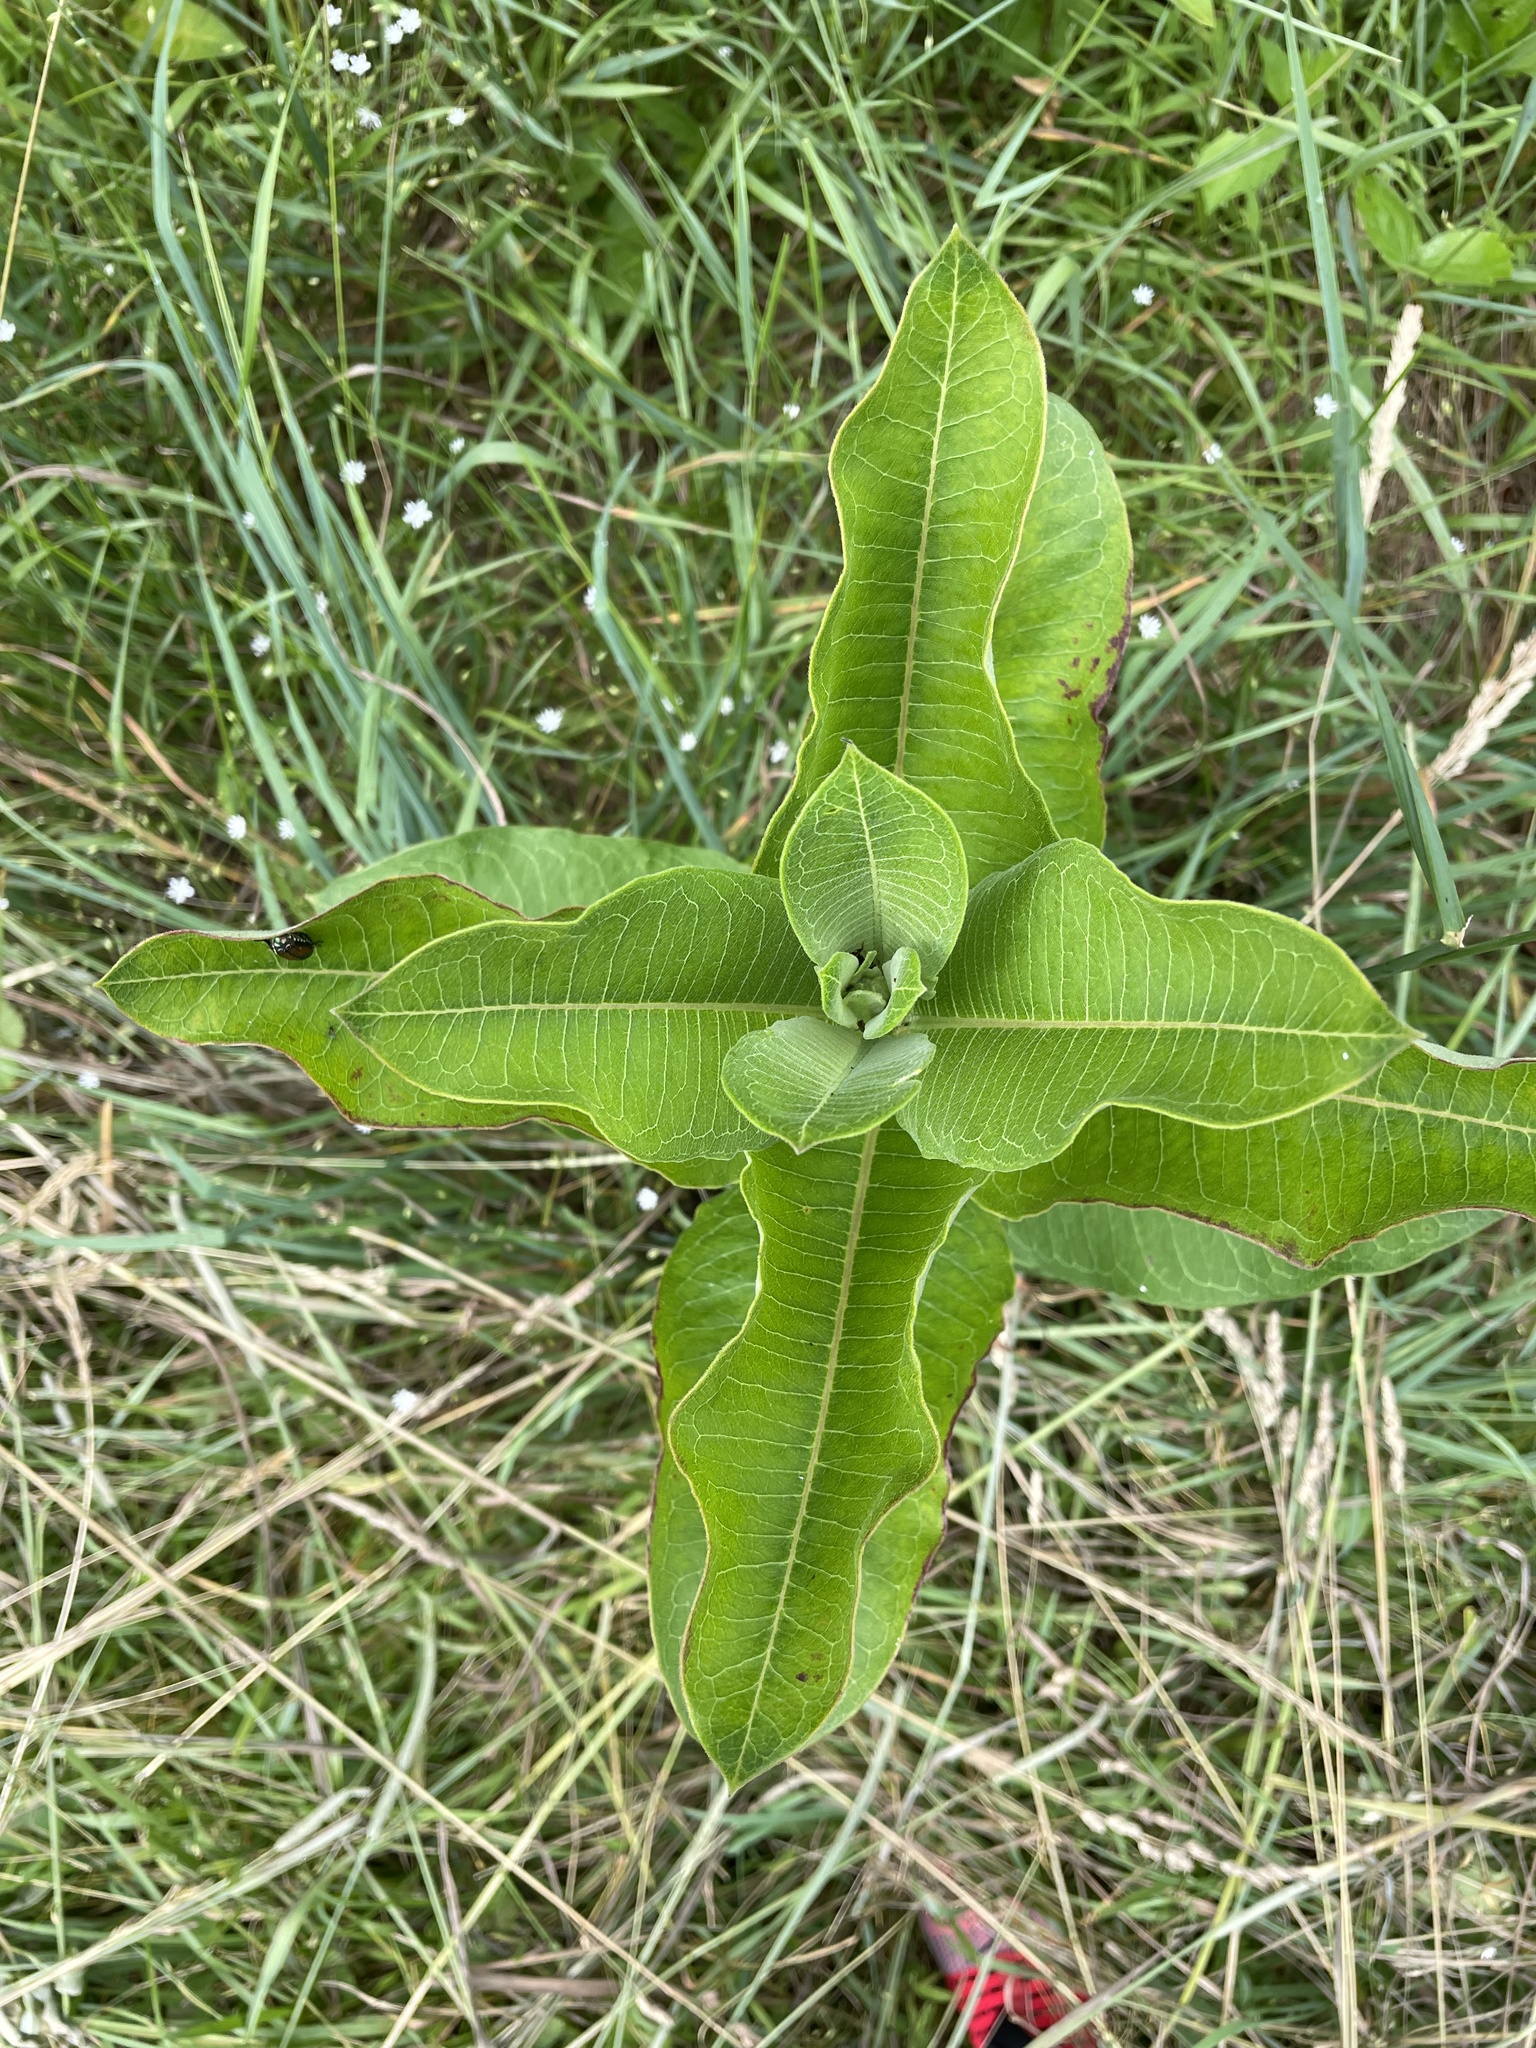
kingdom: Plantae
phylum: Tracheophyta
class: Magnoliopsida
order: Gentianales
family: Apocynaceae
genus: Asclepias
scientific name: Asclepias syriaca
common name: Common milkweed
